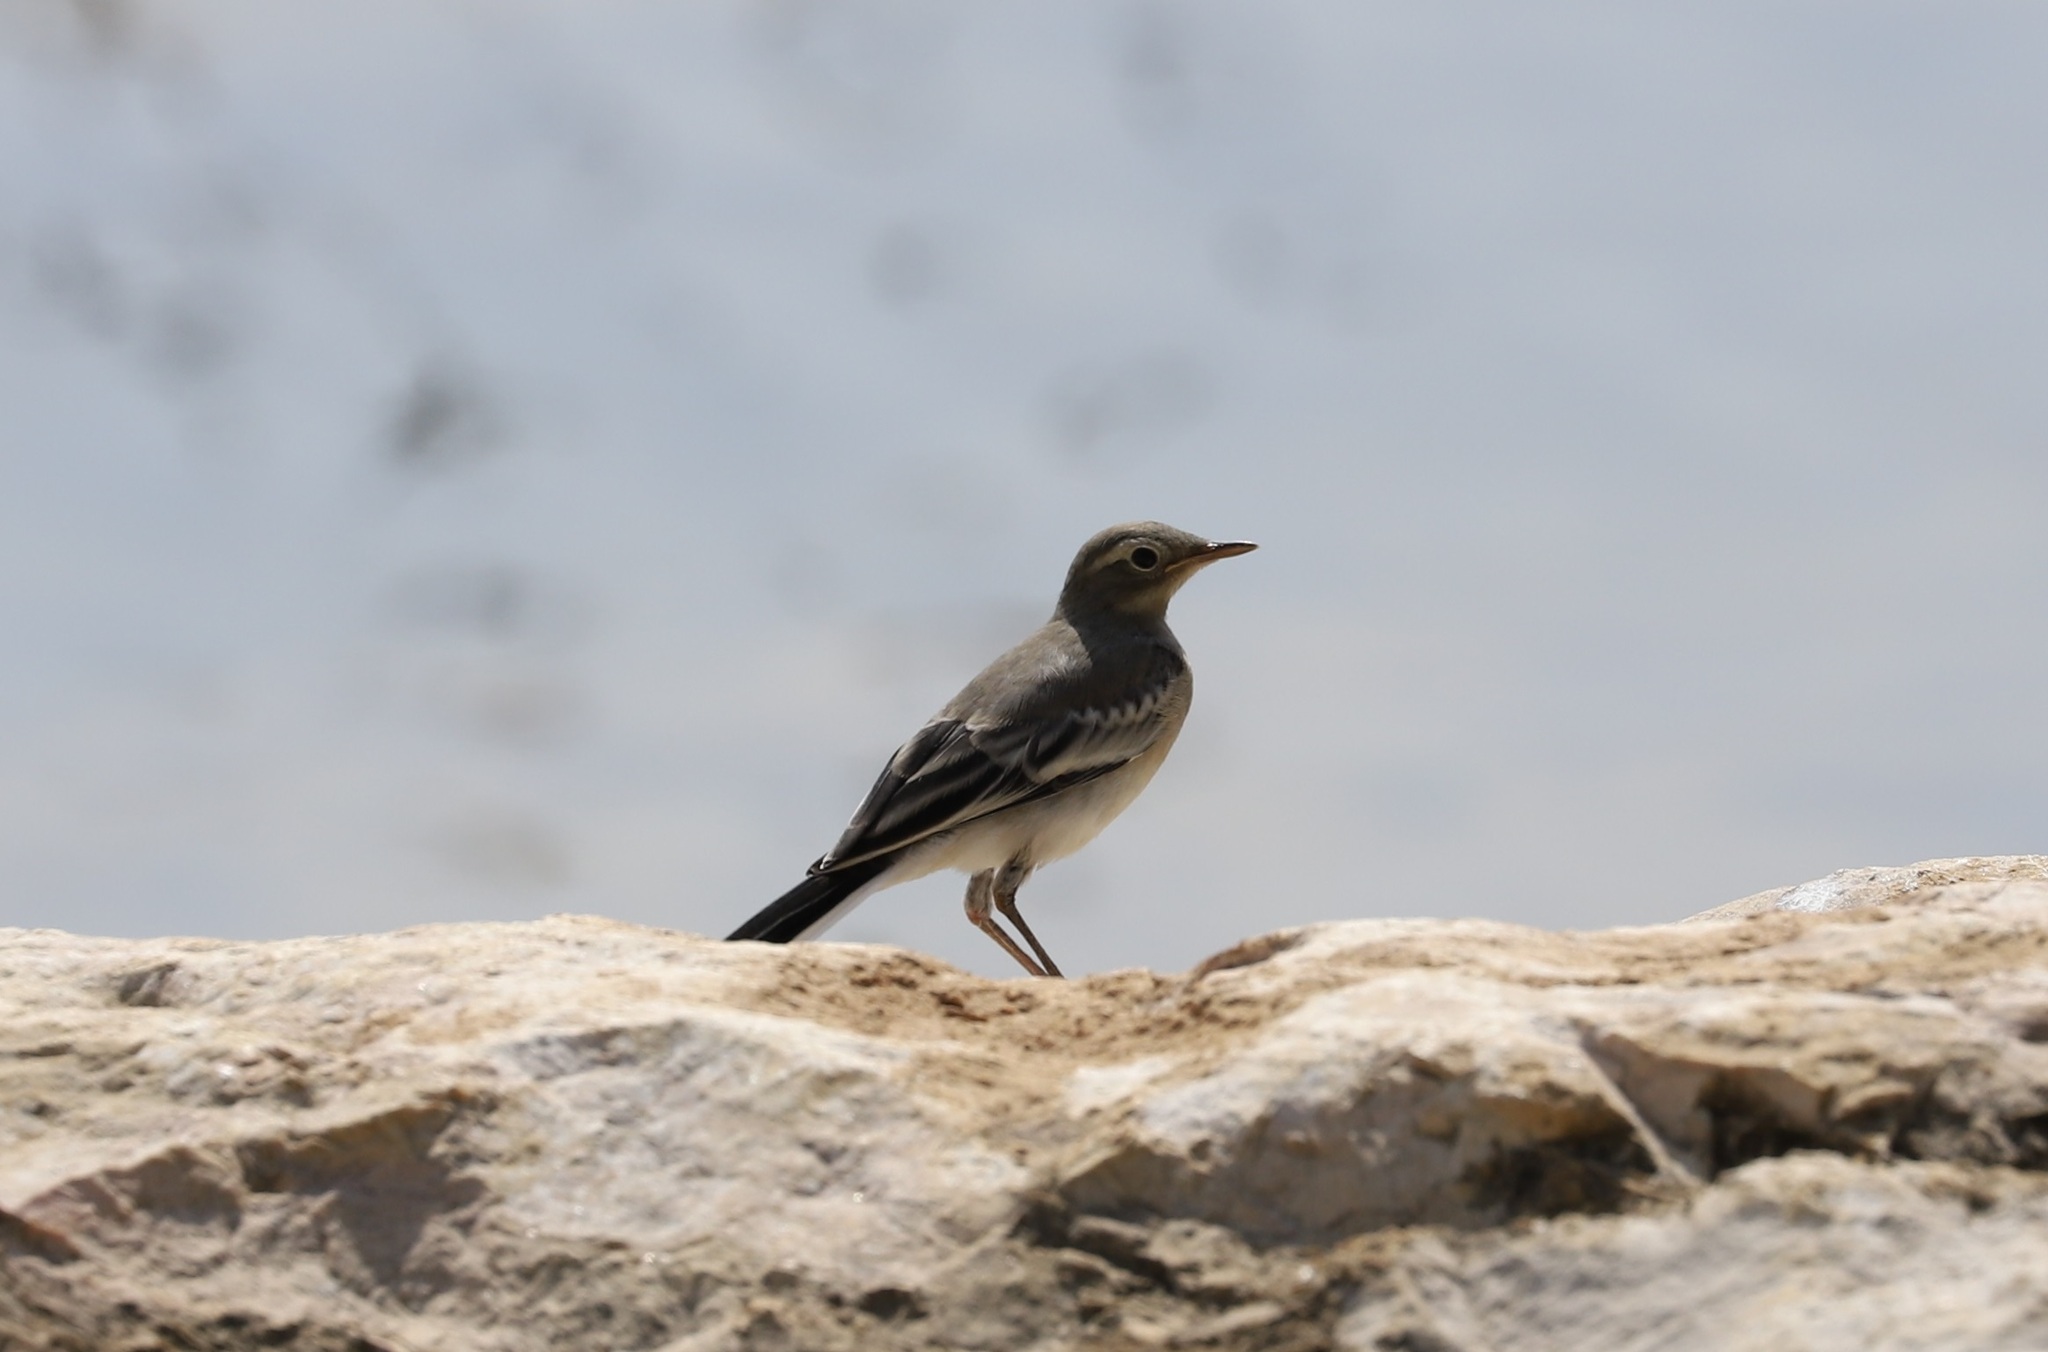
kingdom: Animalia
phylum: Chordata
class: Aves
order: Passeriformes
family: Motacillidae
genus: Motacilla
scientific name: Motacilla alba
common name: White wagtail
